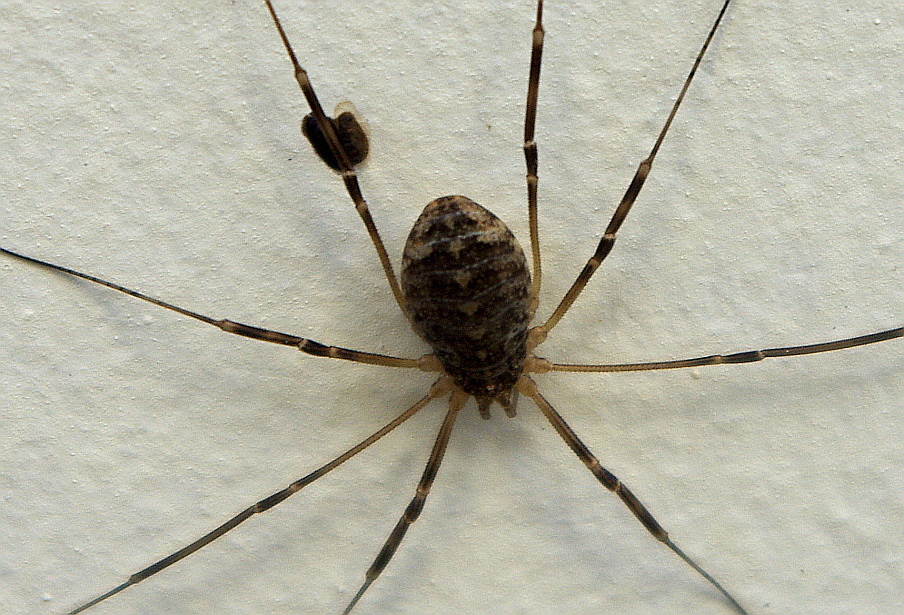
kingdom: Animalia
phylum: Arthropoda
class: Arachnida
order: Opiliones
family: Phalangiidae
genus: Opilio
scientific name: Opilio saxatilis
